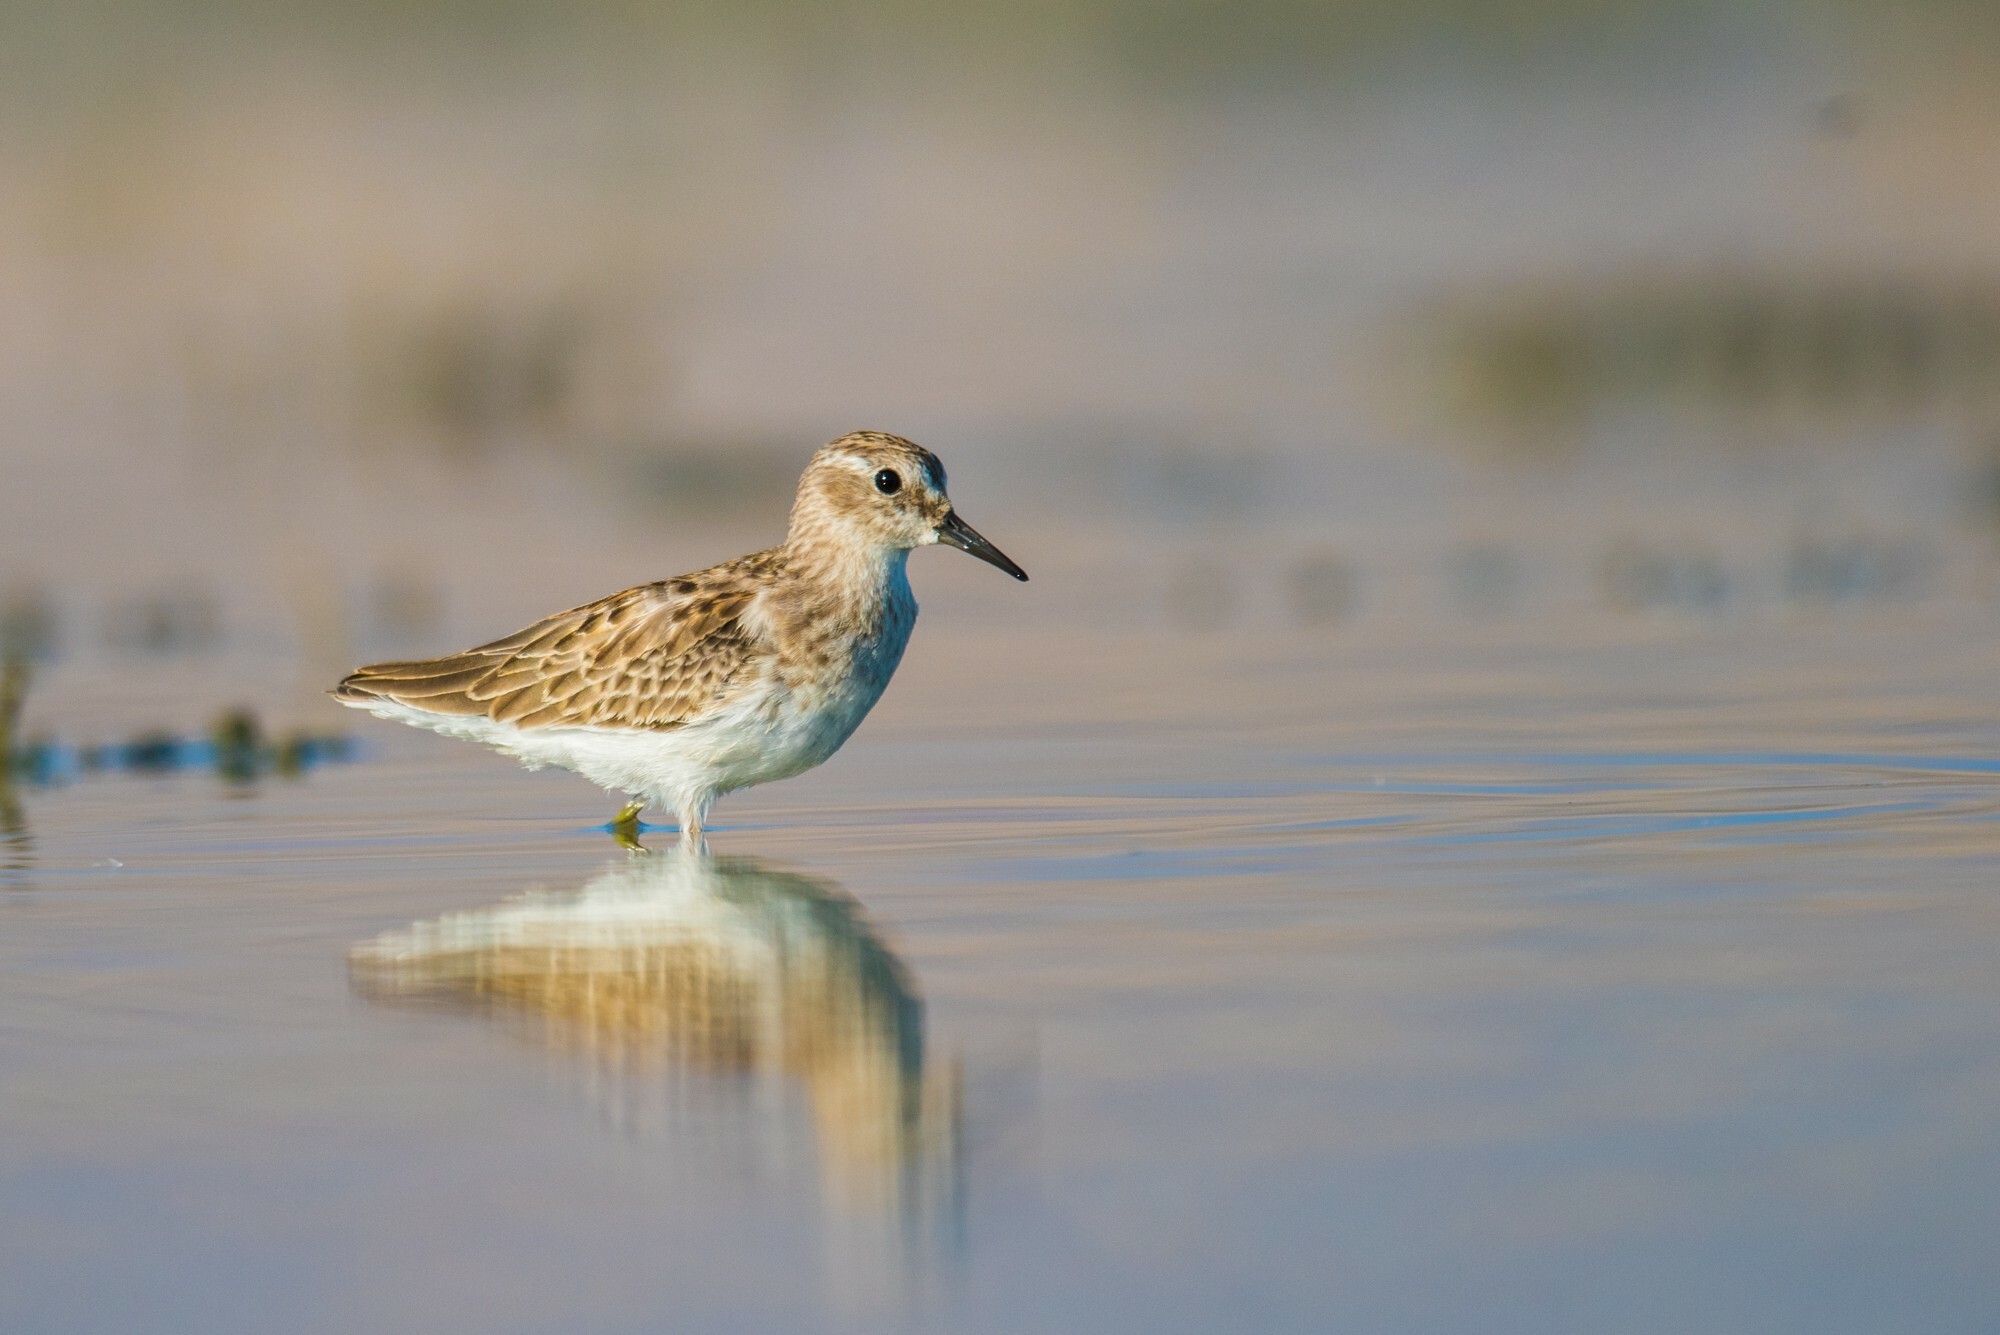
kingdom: Animalia
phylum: Chordata
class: Aves
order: Charadriiformes
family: Scolopacidae
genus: Calidris
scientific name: Calidris minutilla
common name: Least sandpiper
